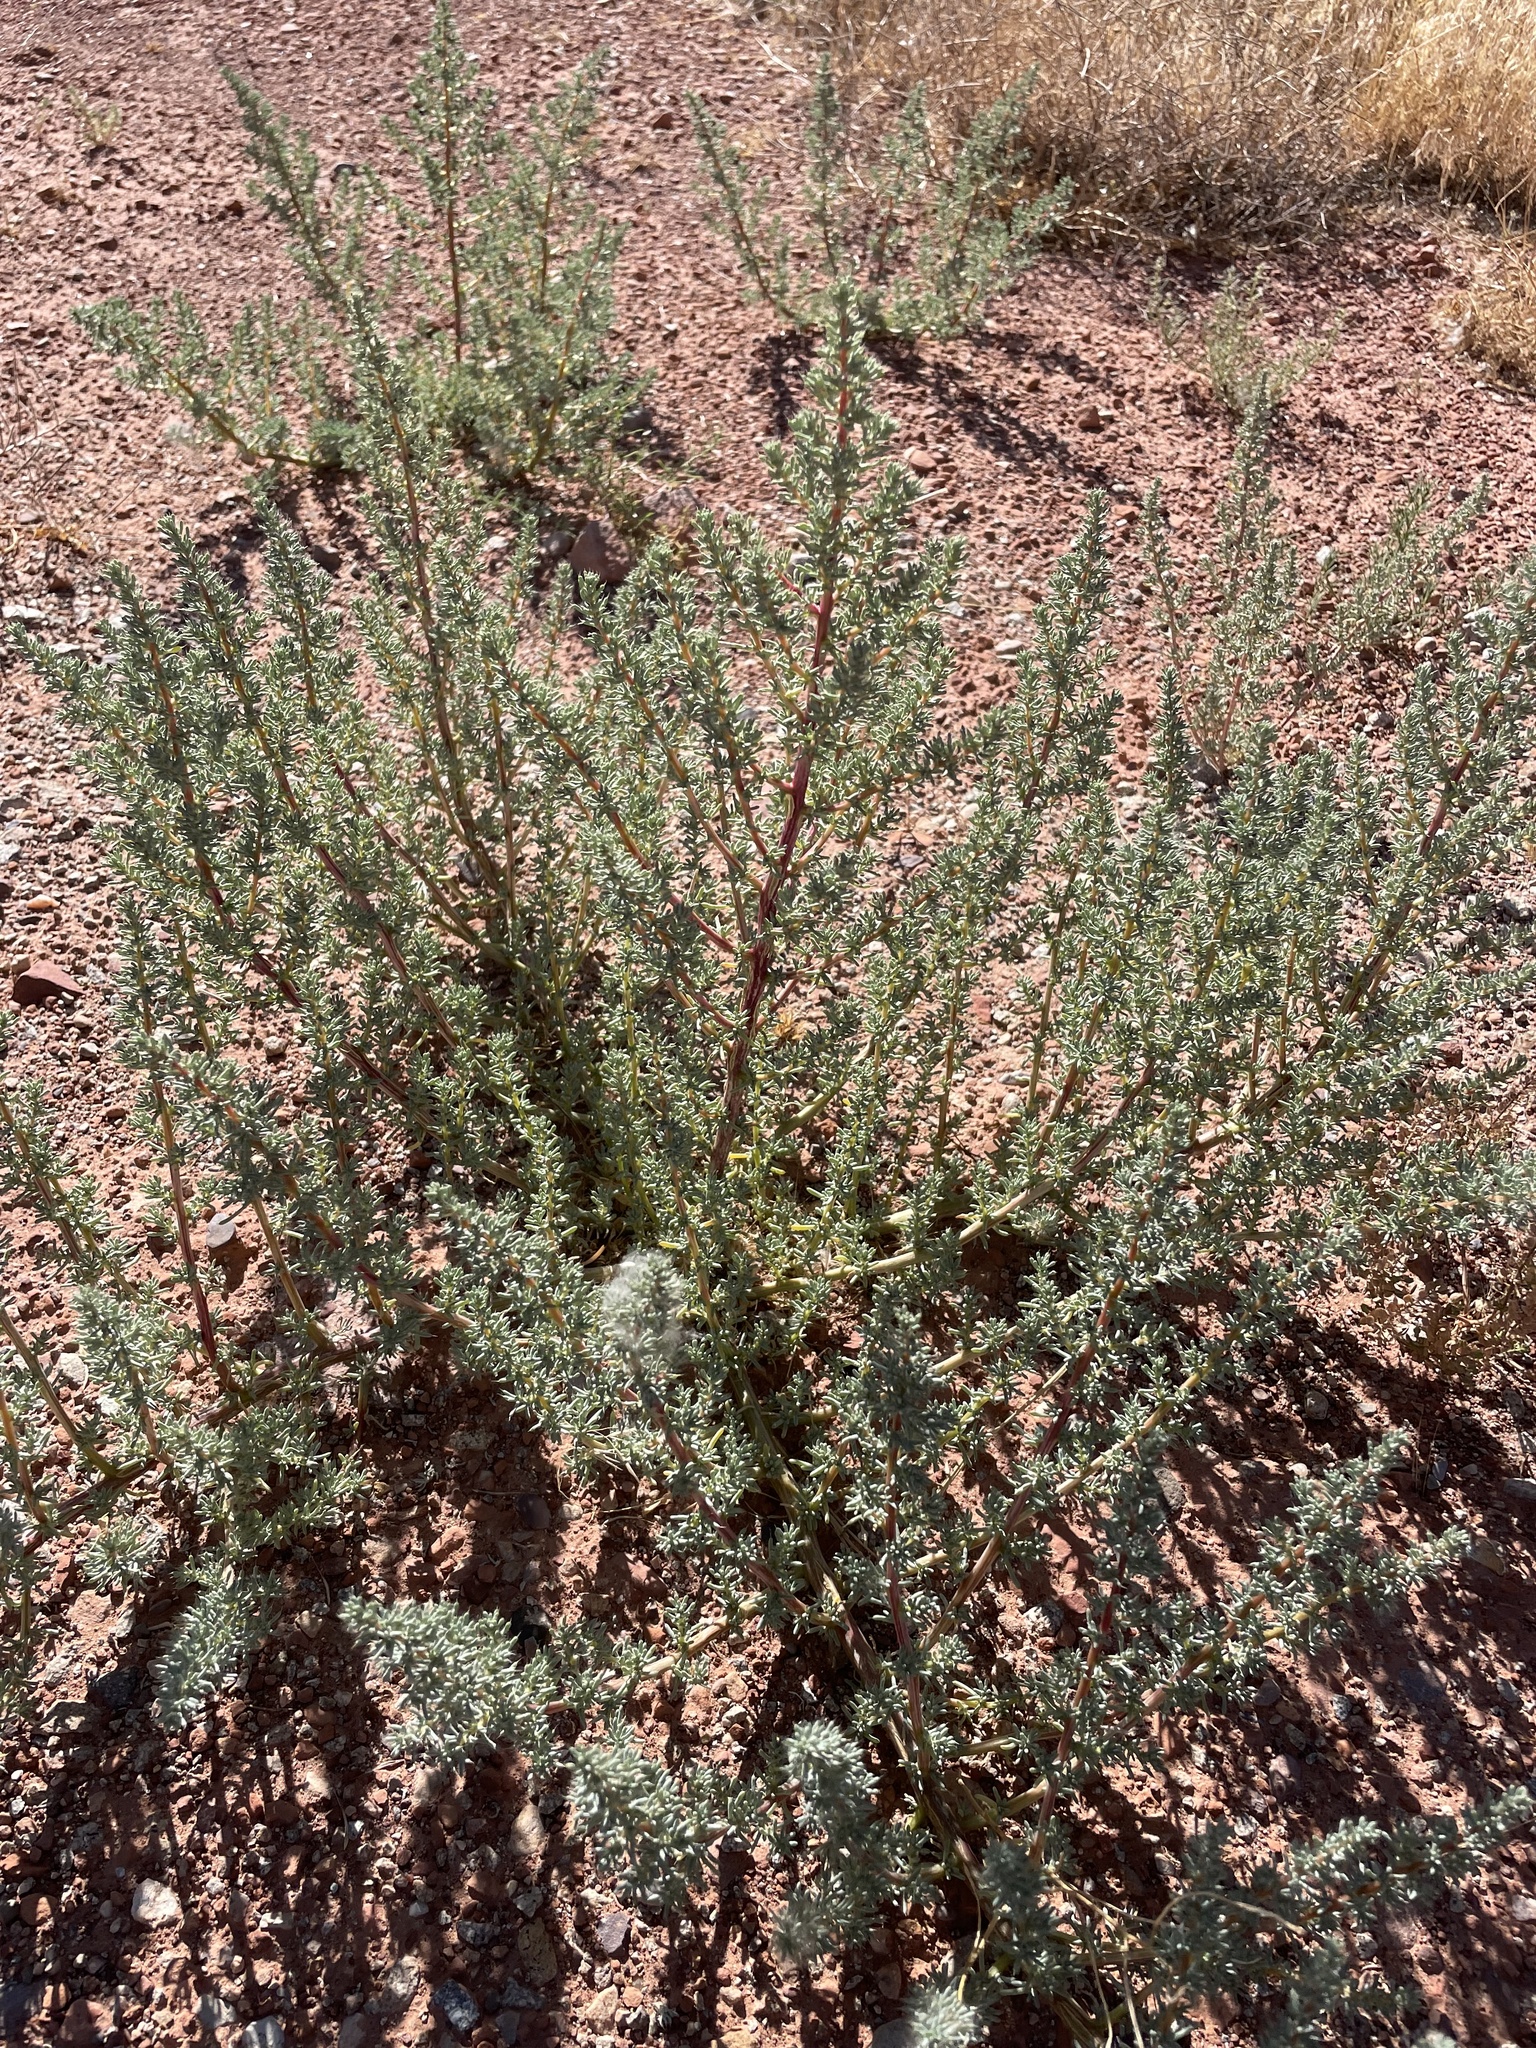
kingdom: Plantae
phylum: Tracheophyta
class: Magnoliopsida
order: Caryophyllales
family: Amaranthaceae
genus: Halogeton
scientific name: Halogeton glomeratus
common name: Saltlover
